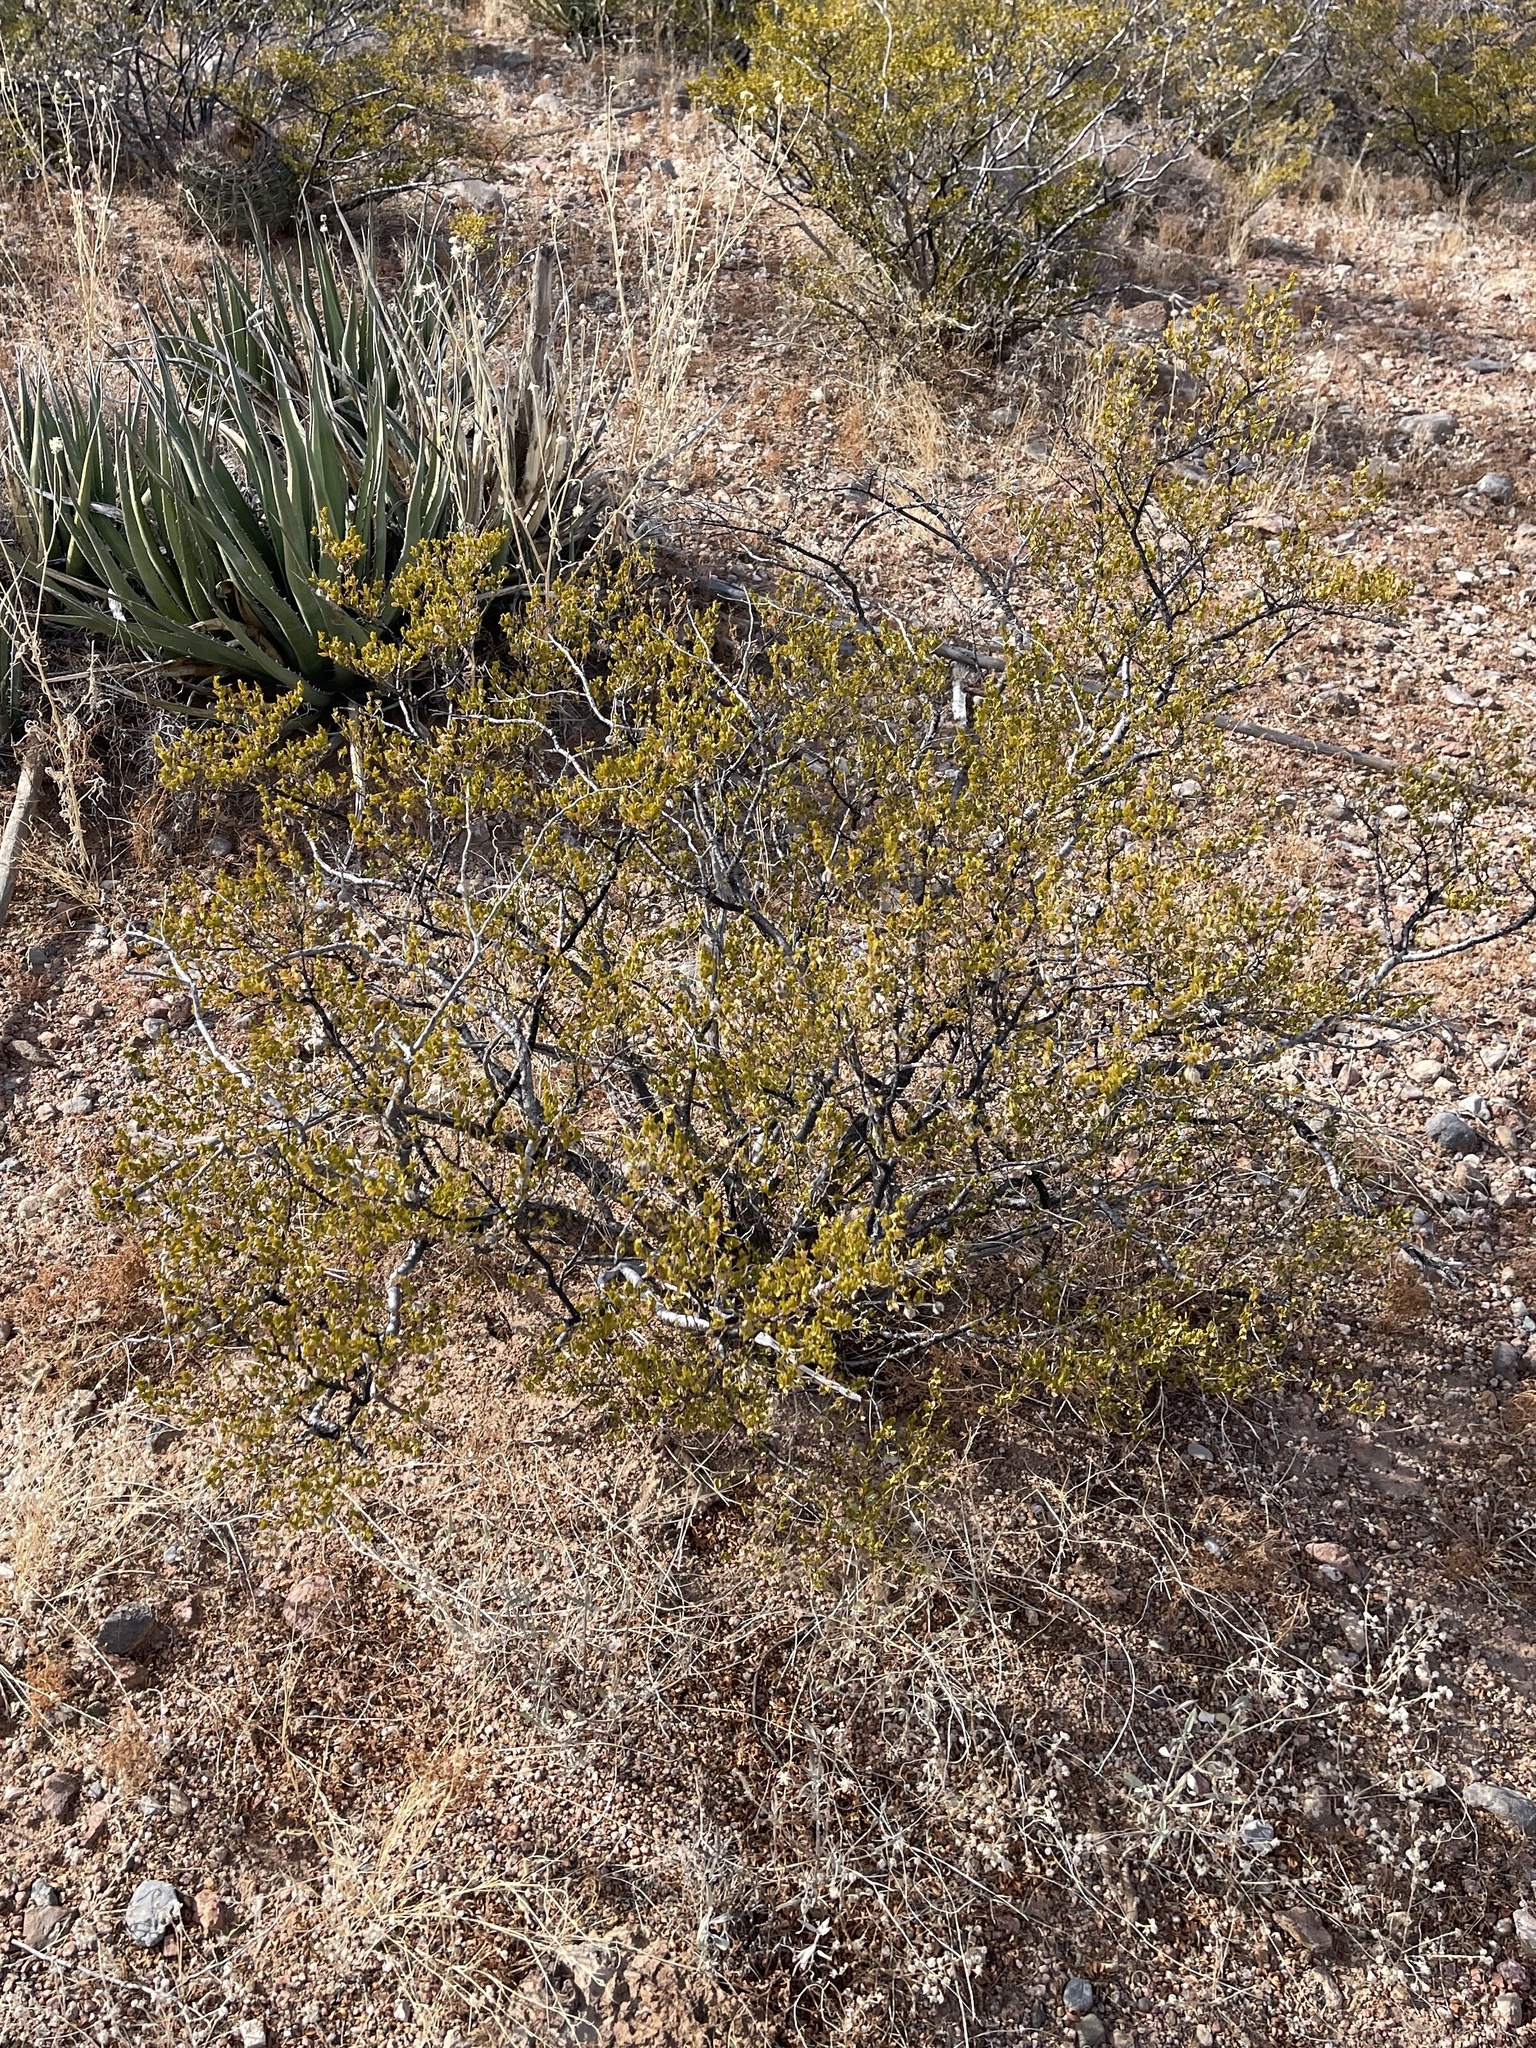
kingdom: Plantae
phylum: Tracheophyta
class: Magnoliopsida
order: Zygophyllales
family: Zygophyllaceae
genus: Larrea
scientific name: Larrea tridentata
